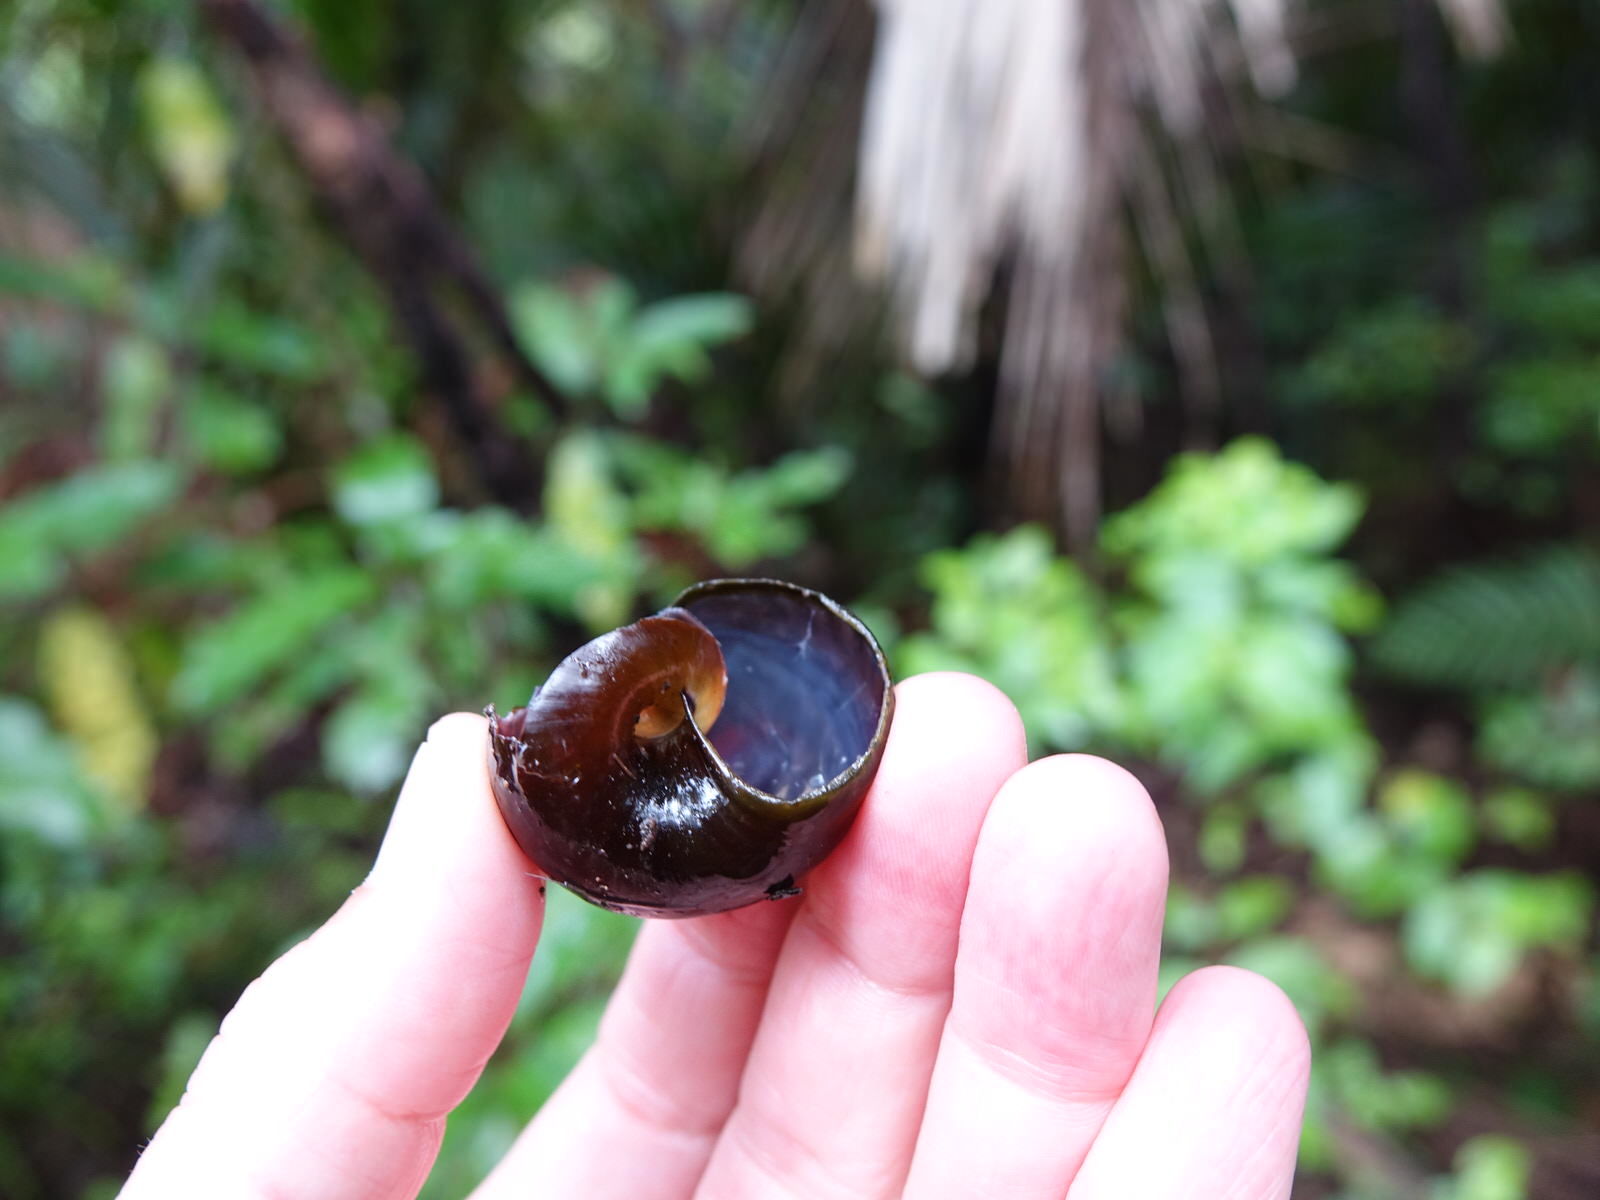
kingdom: Animalia
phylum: Mollusca
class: Gastropoda
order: Stylommatophora
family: Rhytididae
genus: Paryphanta
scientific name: Paryphanta busbyi
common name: Kauri snail
